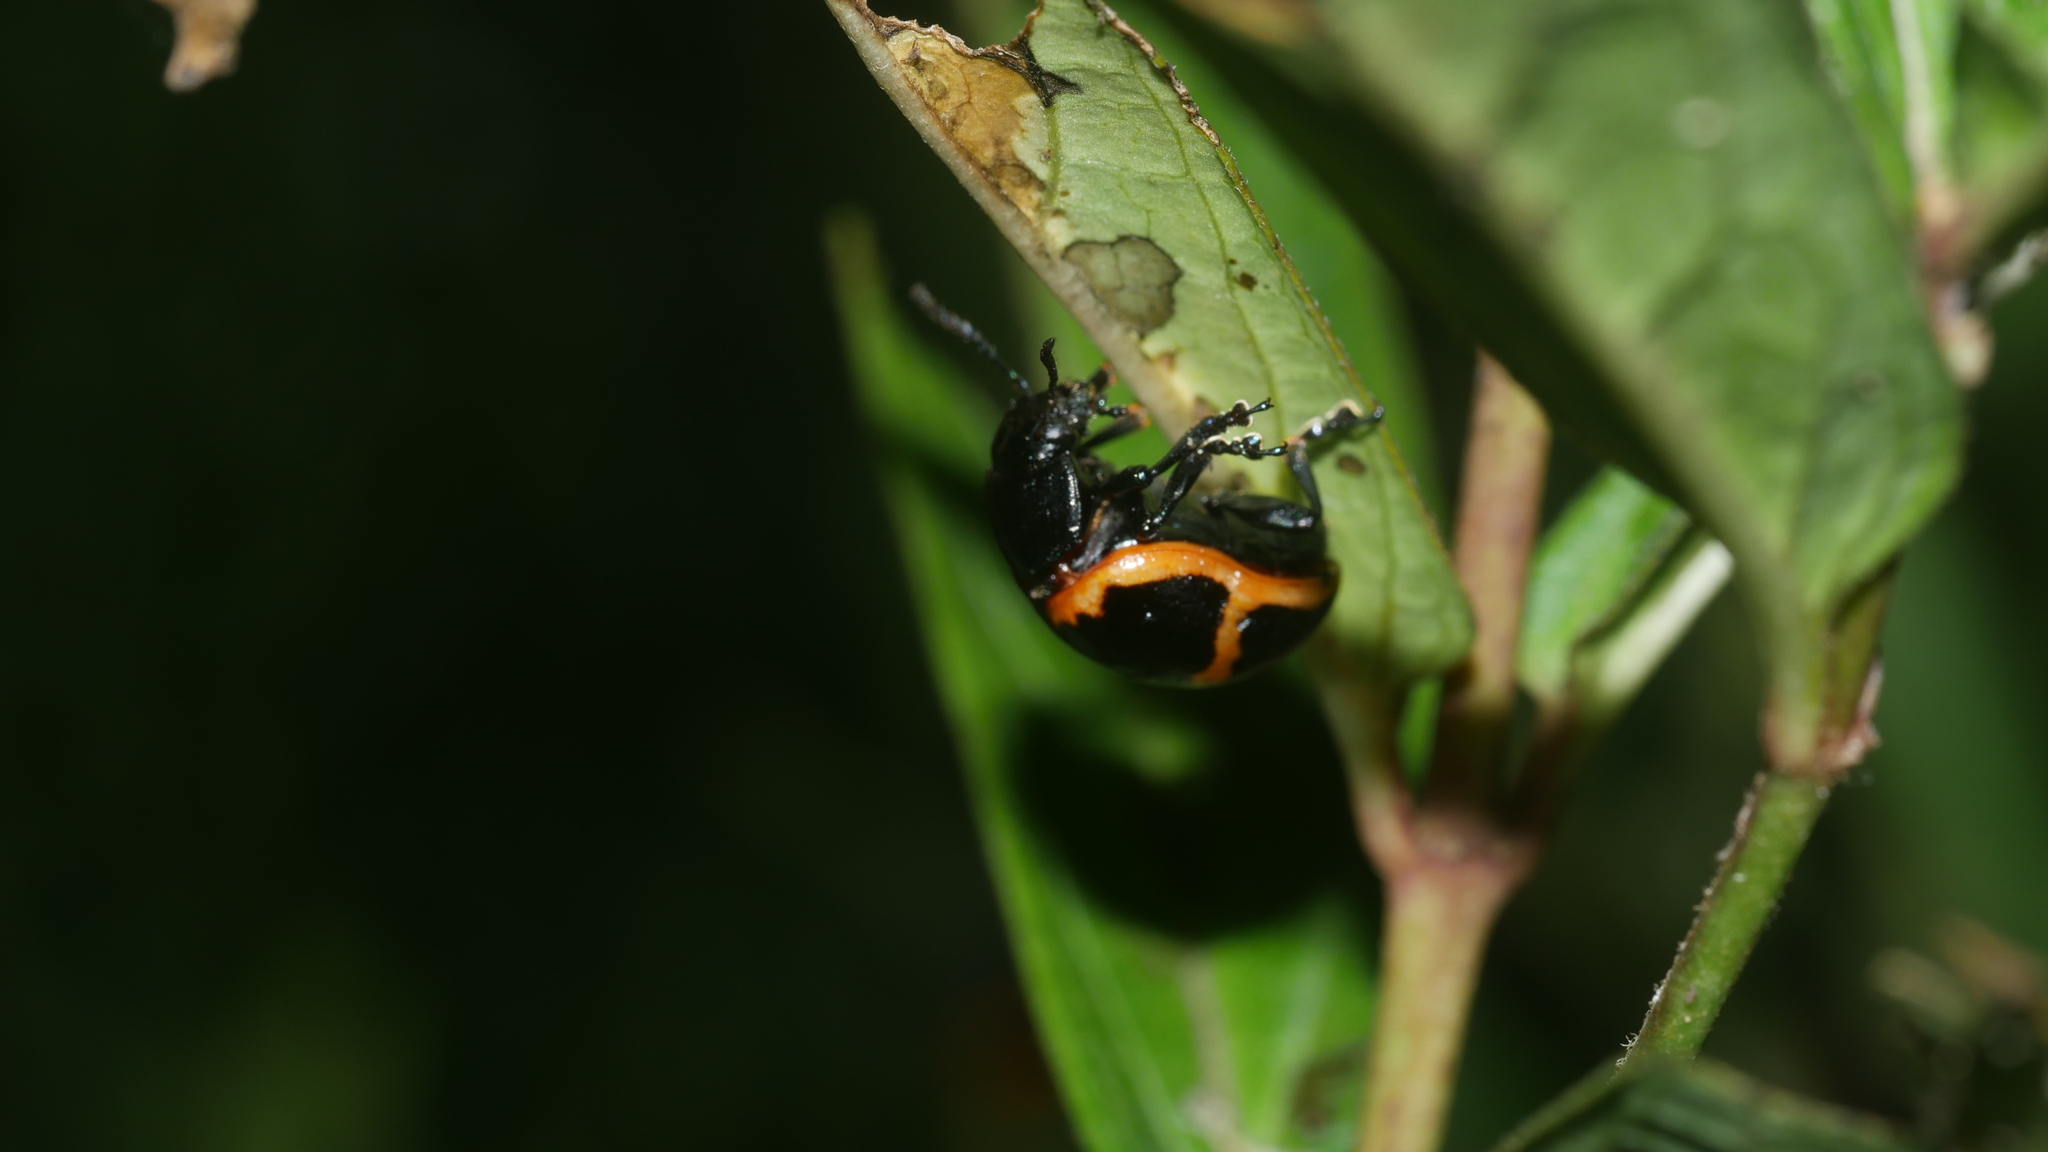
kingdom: Animalia
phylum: Arthropoda
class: Insecta
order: Coleoptera
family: Chrysomelidae
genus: Labidomera
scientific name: Labidomera clivicollis
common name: Swamp milkweed leaf beetle
